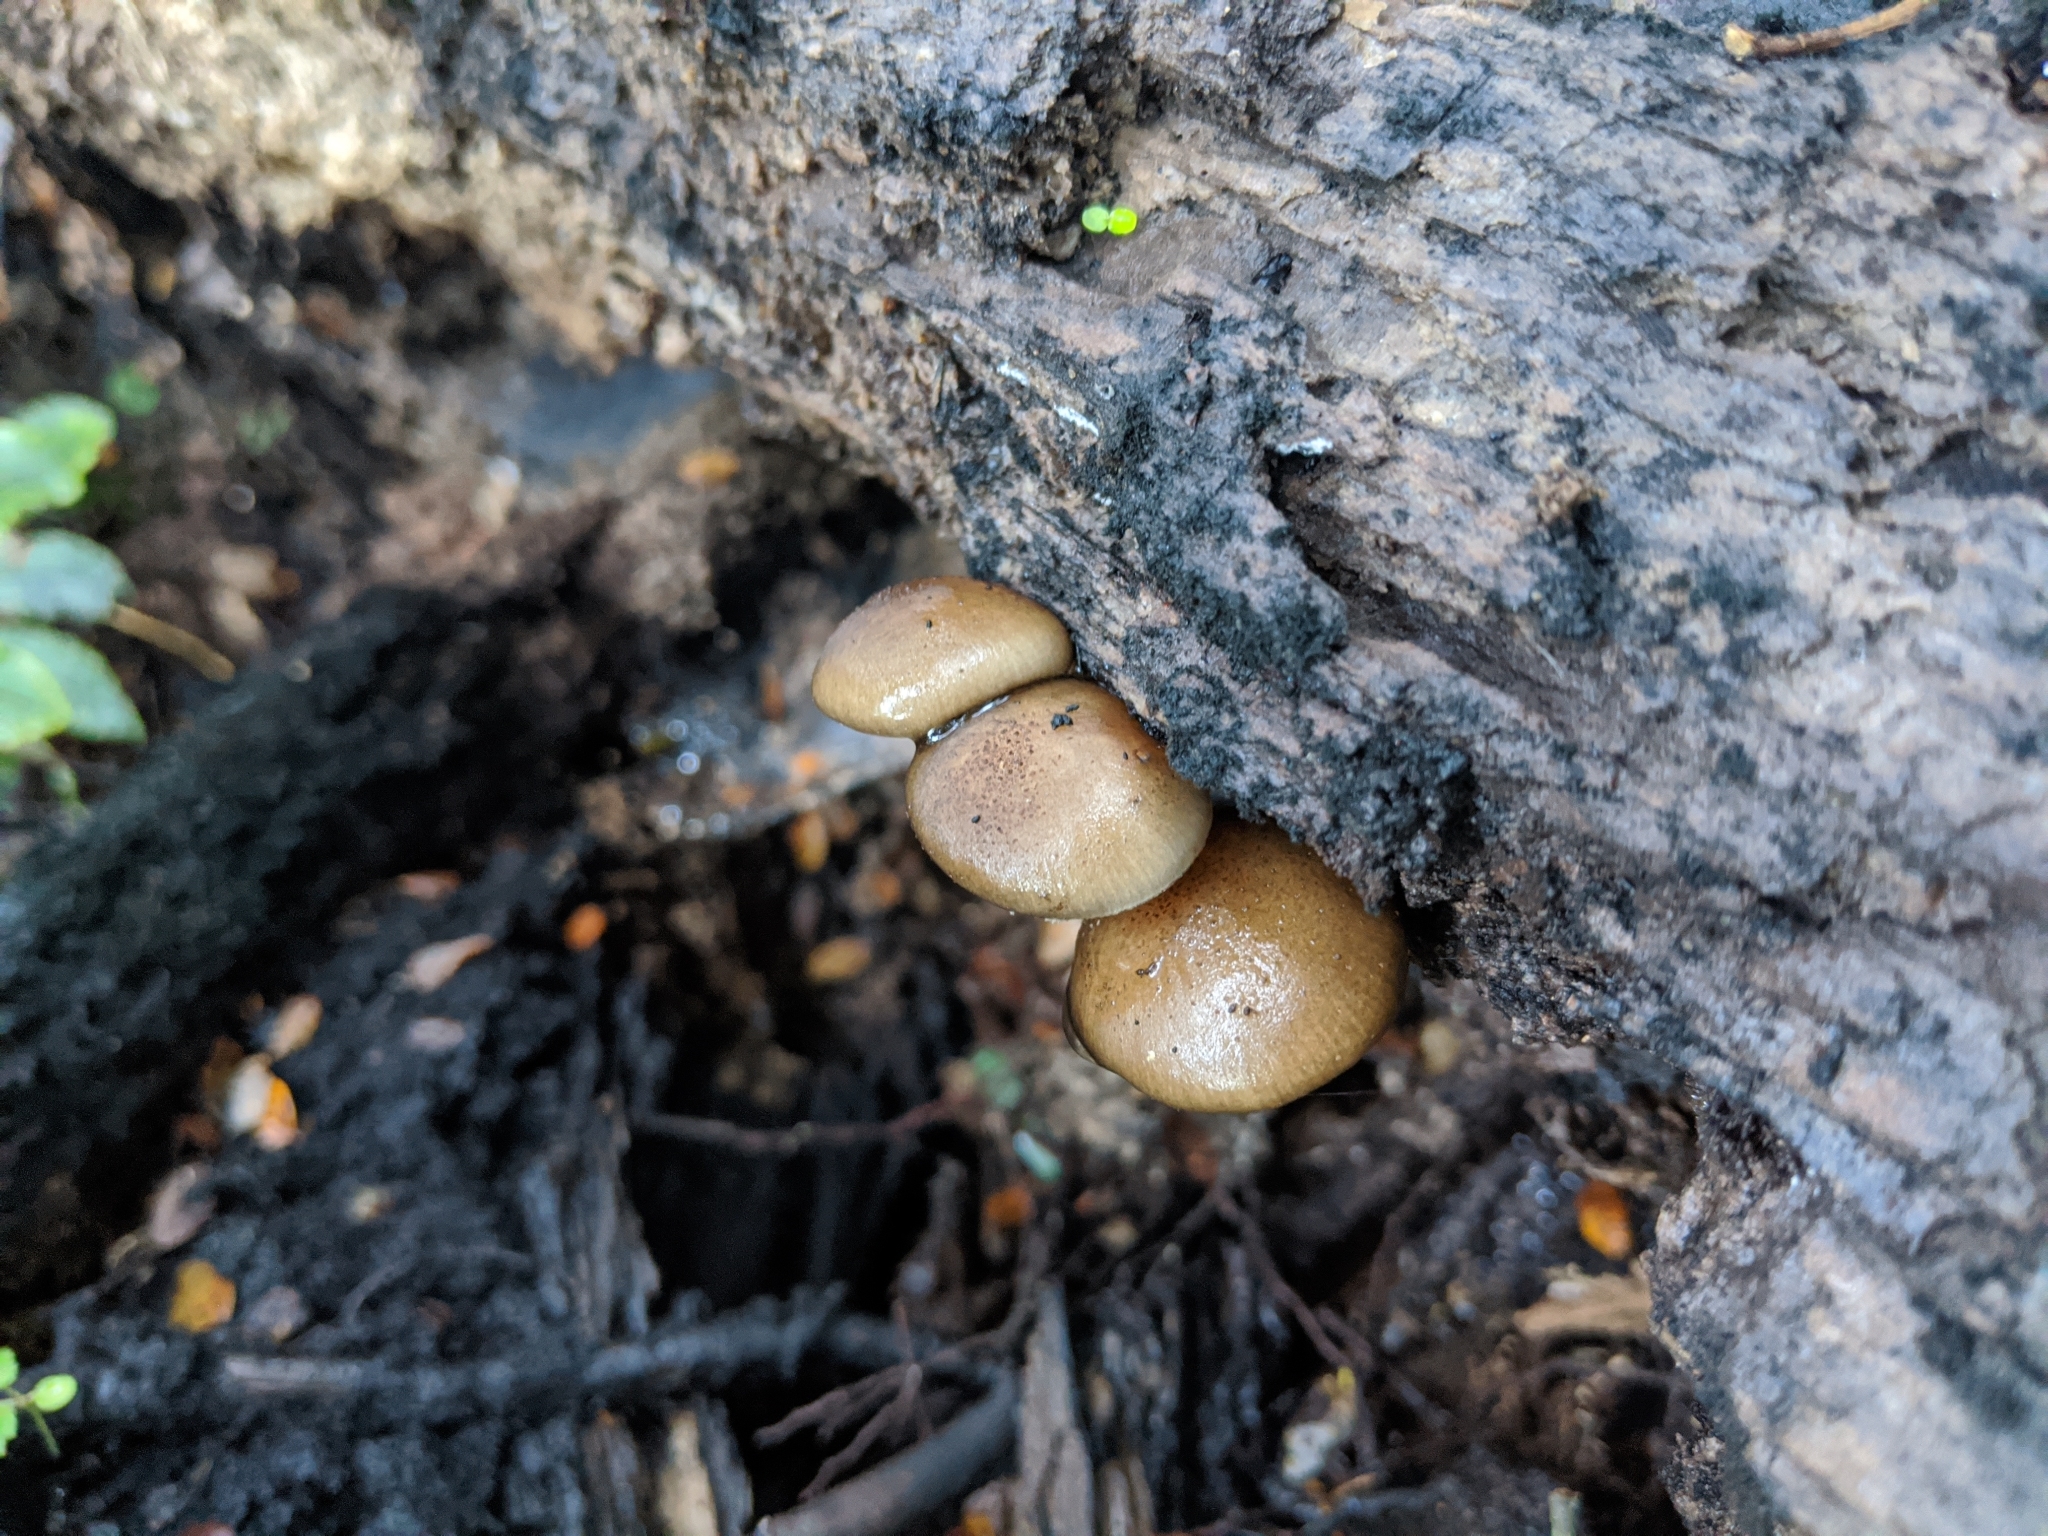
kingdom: Fungi
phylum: Basidiomycota
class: Agaricomycetes
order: Agaricales
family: Physalacriaceae
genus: Armillaria
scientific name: Armillaria novae-zelandiae
